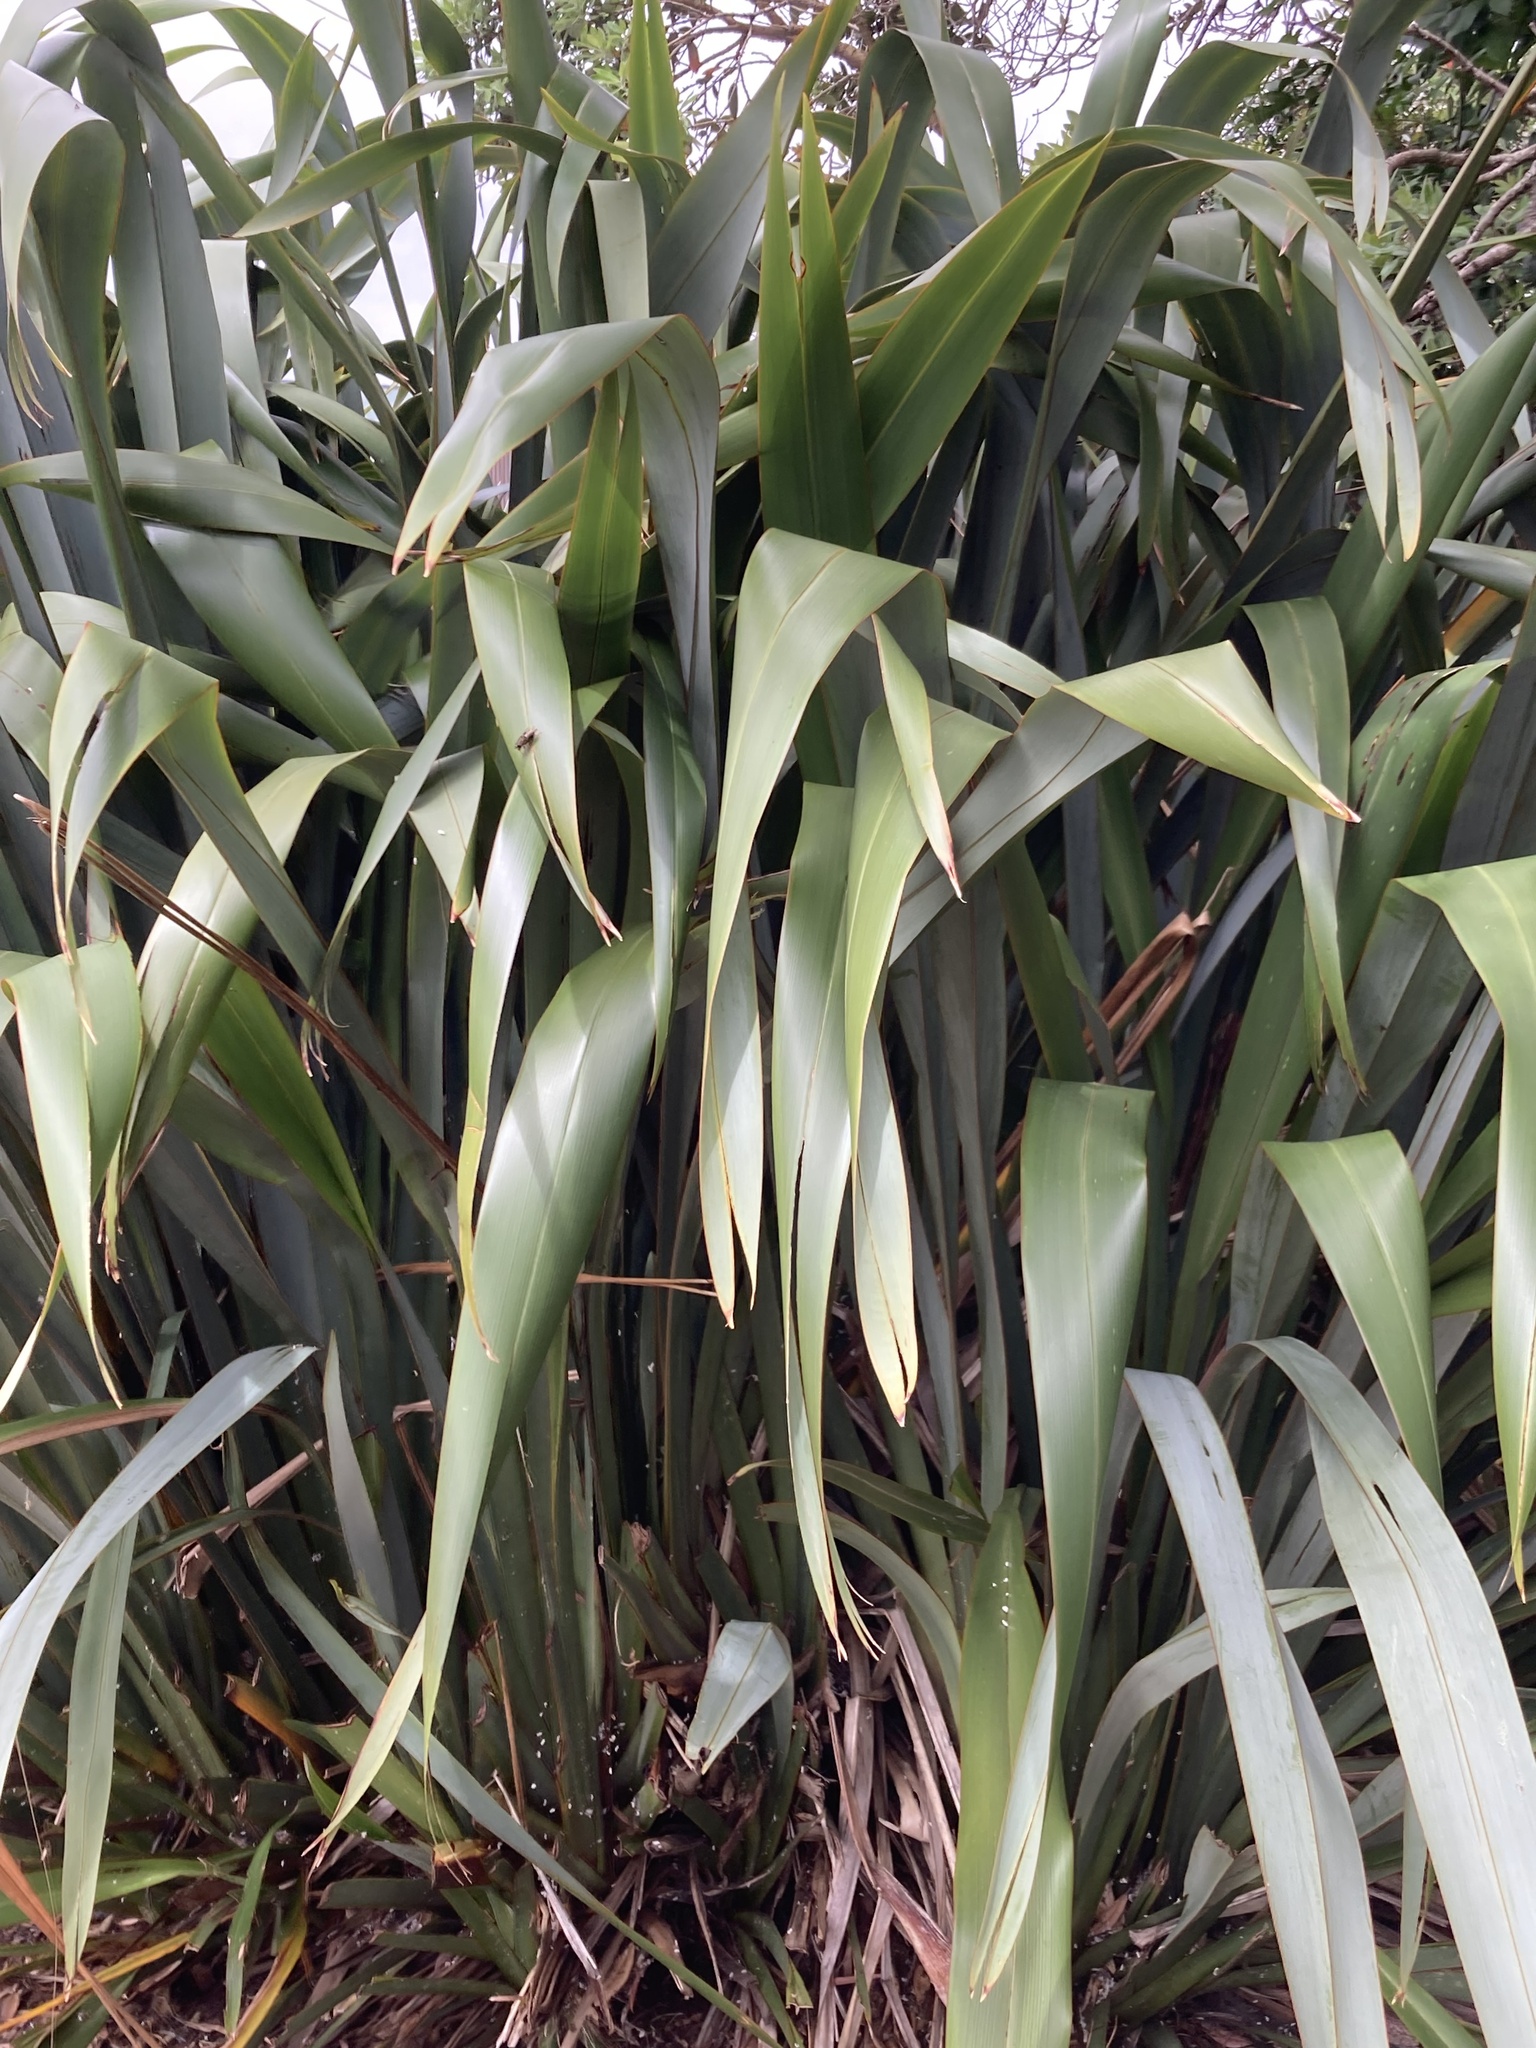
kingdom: Plantae
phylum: Tracheophyta
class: Liliopsida
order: Asparagales
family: Asphodelaceae
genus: Phormium
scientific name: Phormium tenax
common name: New zealand flax
